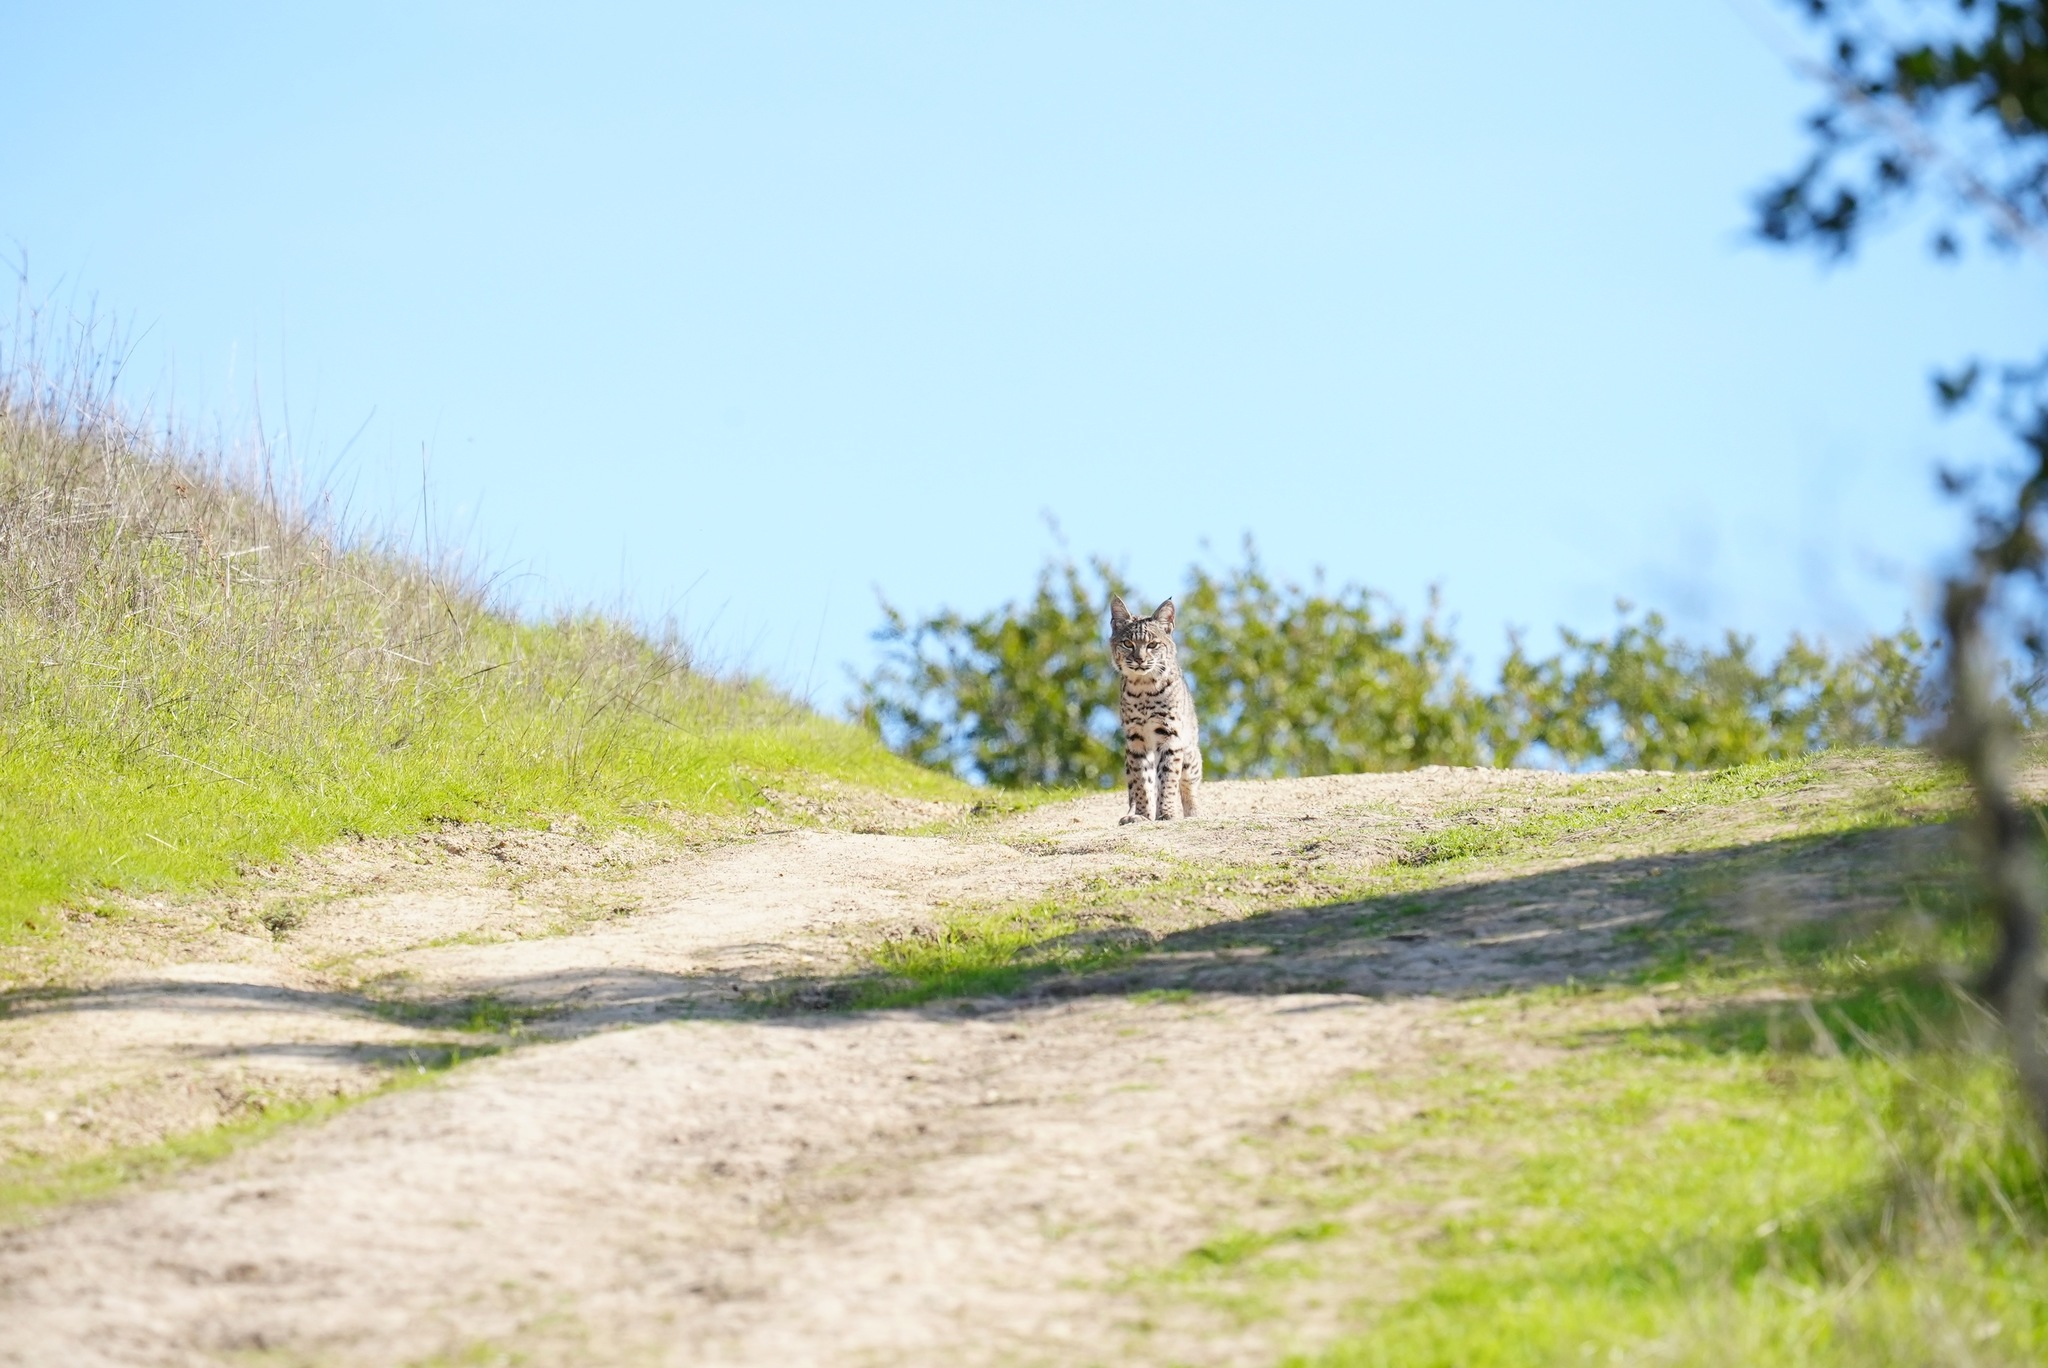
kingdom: Animalia
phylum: Chordata
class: Mammalia
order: Carnivora
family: Felidae
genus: Lynx
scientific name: Lynx rufus
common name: Bobcat
